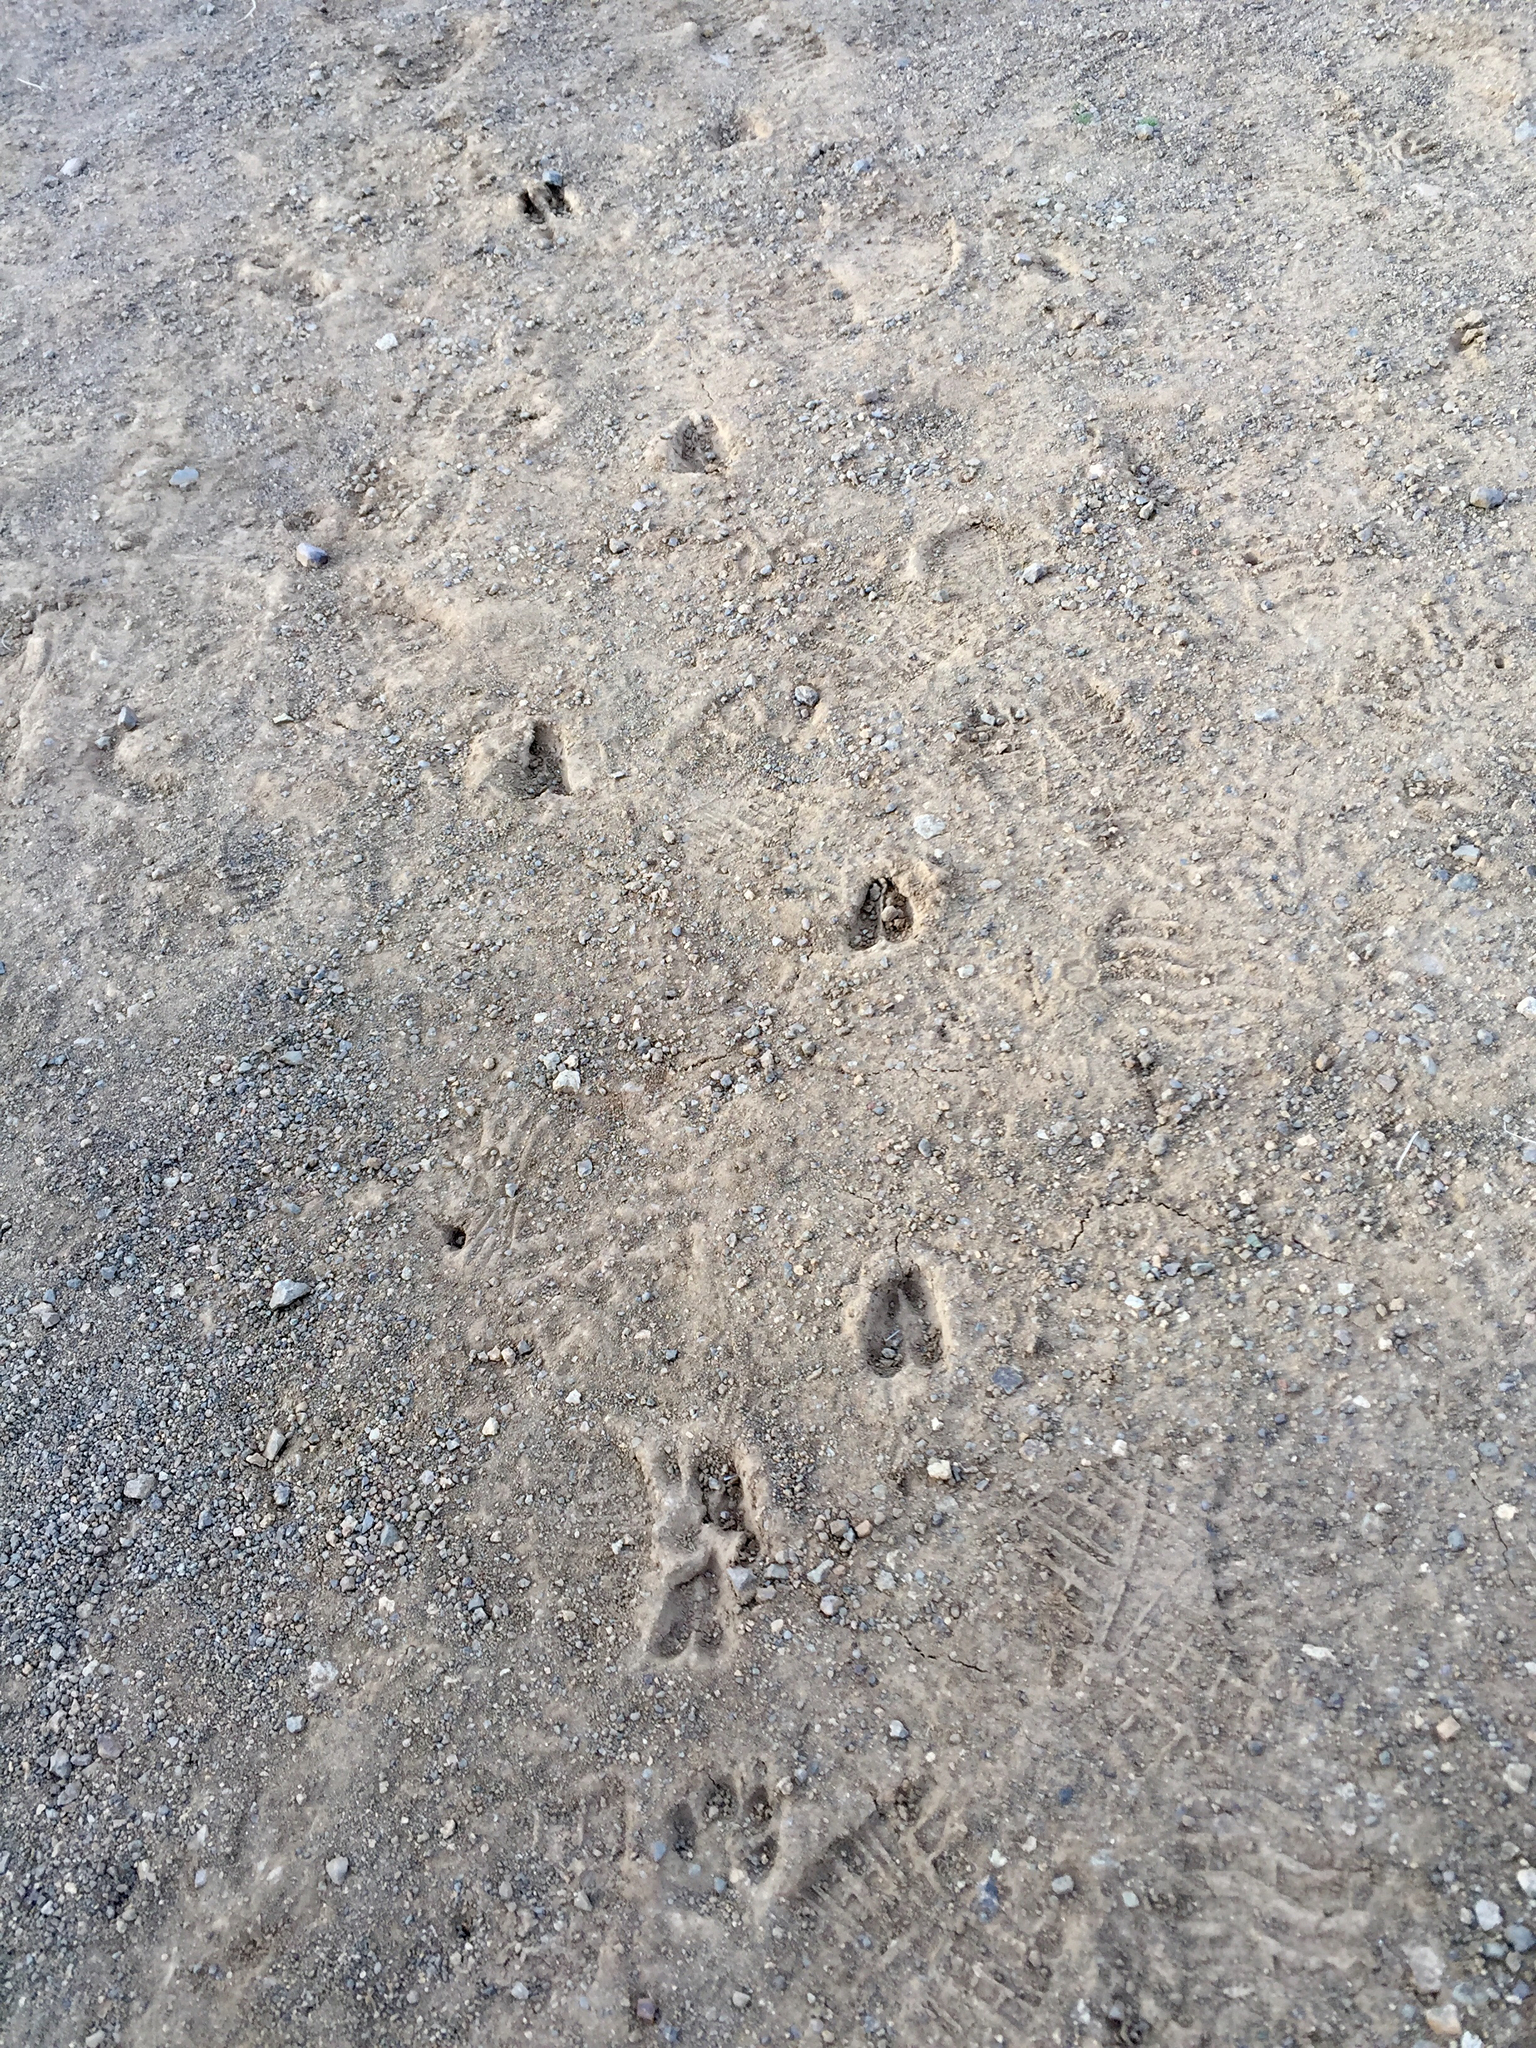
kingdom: Animalia
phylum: Chordata
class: Mammalia
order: Artiodactyla
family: Cervidae
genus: Odocoileus
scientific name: Odocoileus hemionus
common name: Mule deer
